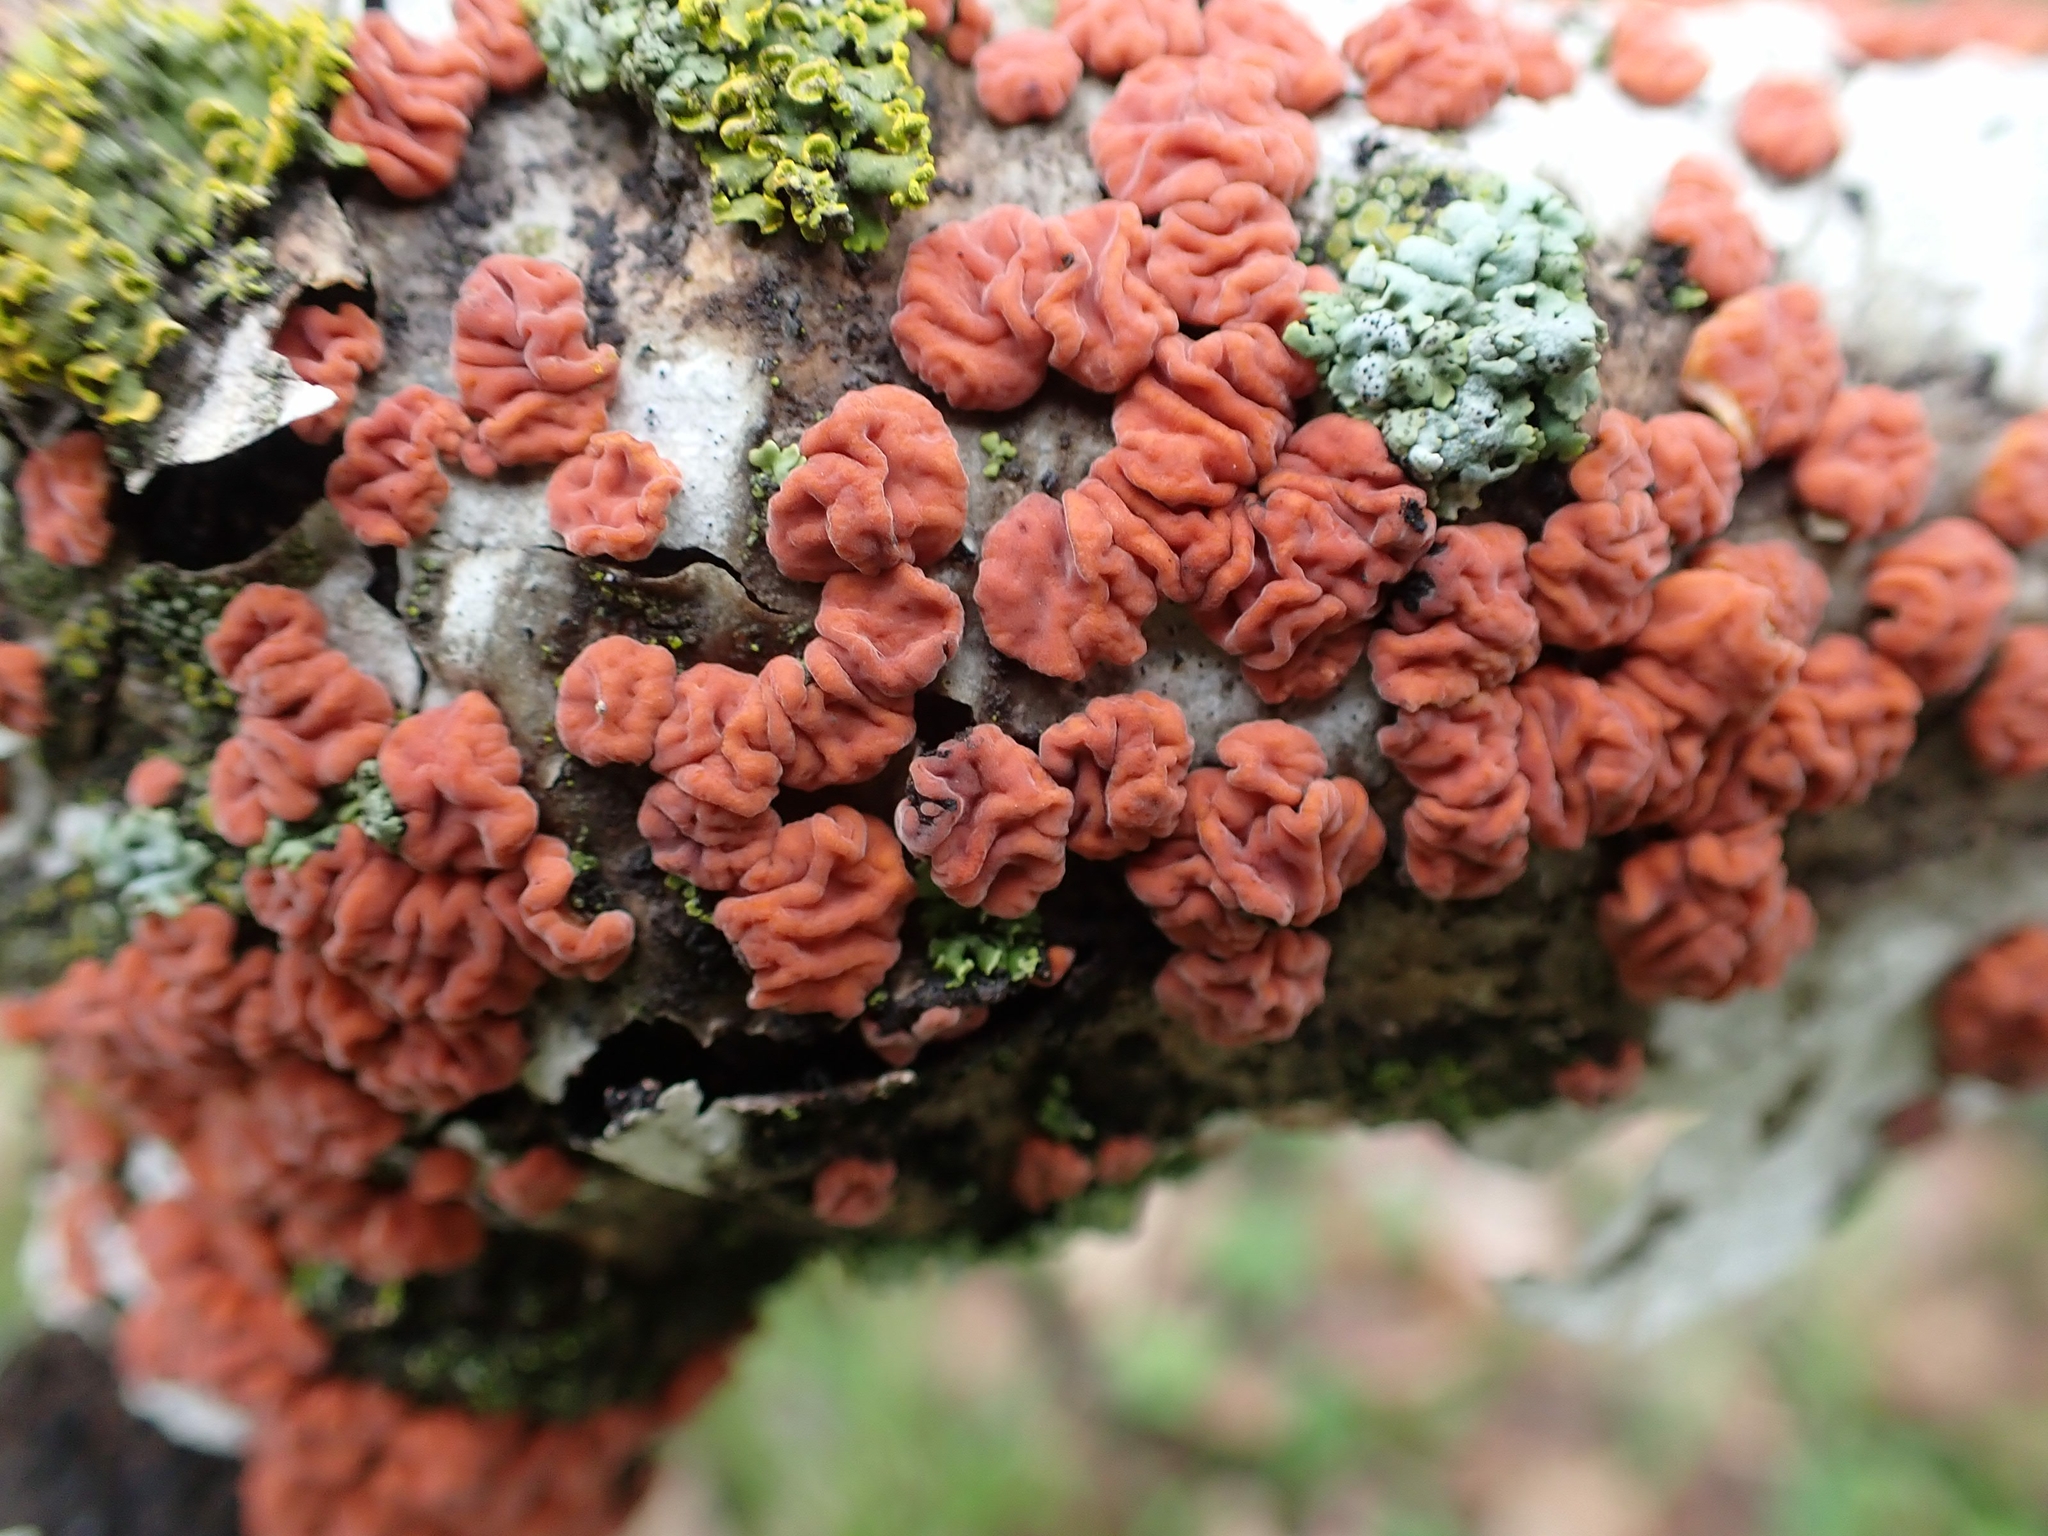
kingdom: Fungi
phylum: Basidiomycota
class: Agaricomycetes
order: Russulales
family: Peniophoraceae
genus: Peniophora
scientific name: Peniophora rufa
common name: Red tree brain fungus
